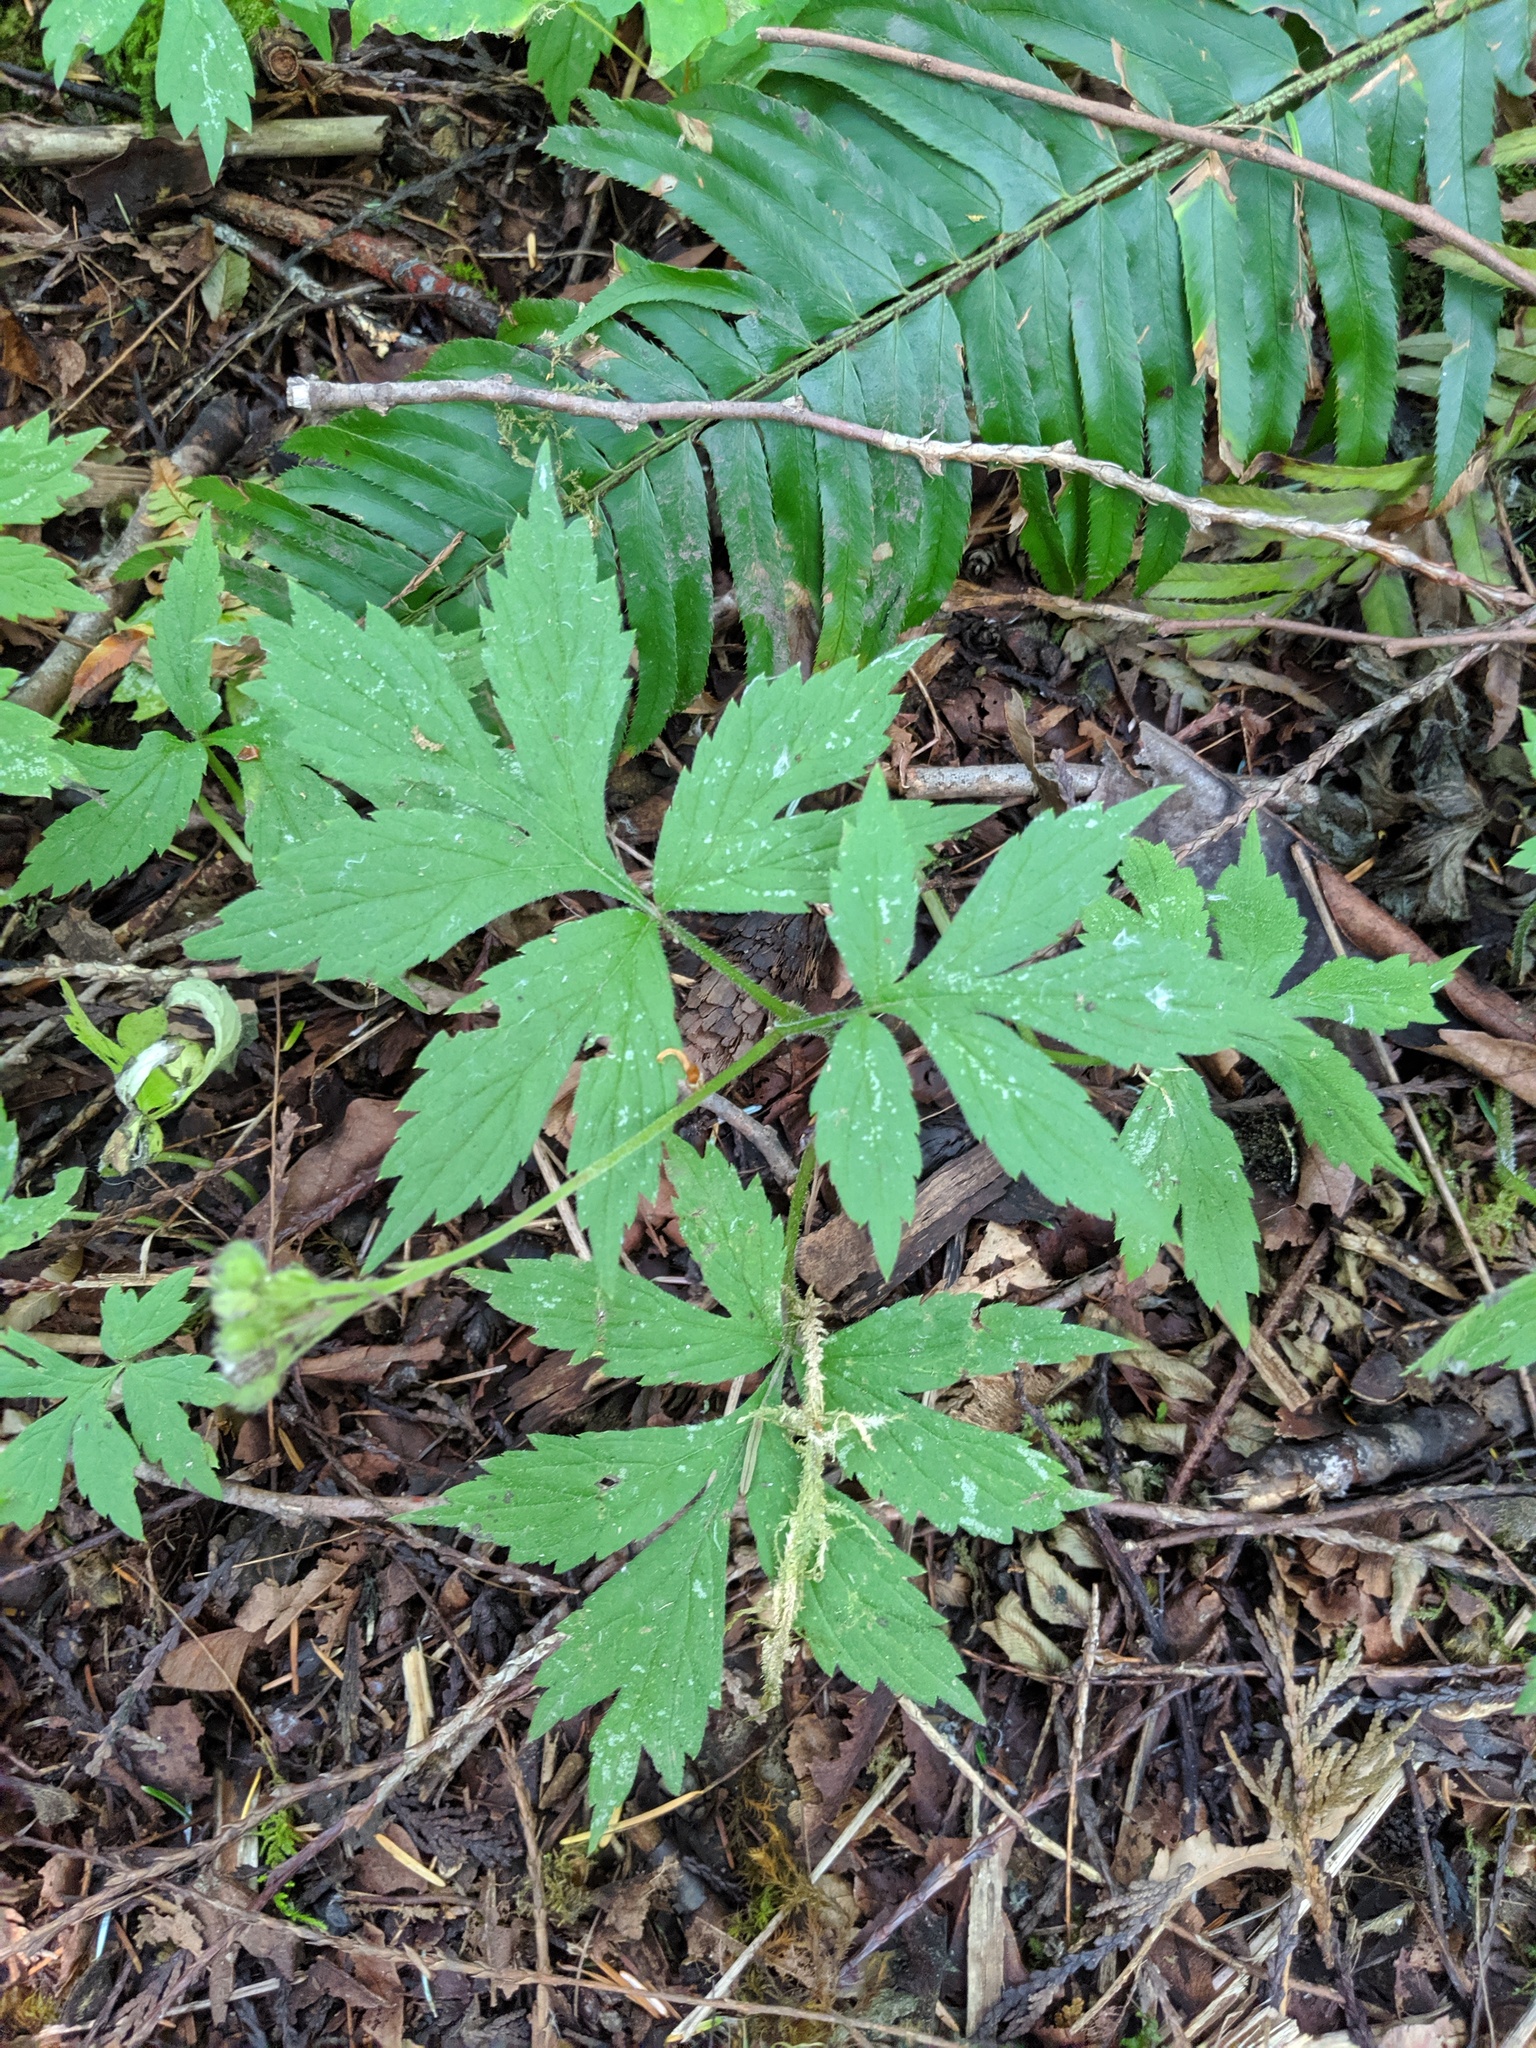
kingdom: Plantae
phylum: Tracheophyta
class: Magnoliopsida
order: Boraginales
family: Hydrophyllaceae
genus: Hydrophyllum
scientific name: Hydrophyllum tenuipes
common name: Pacific waterleaf
